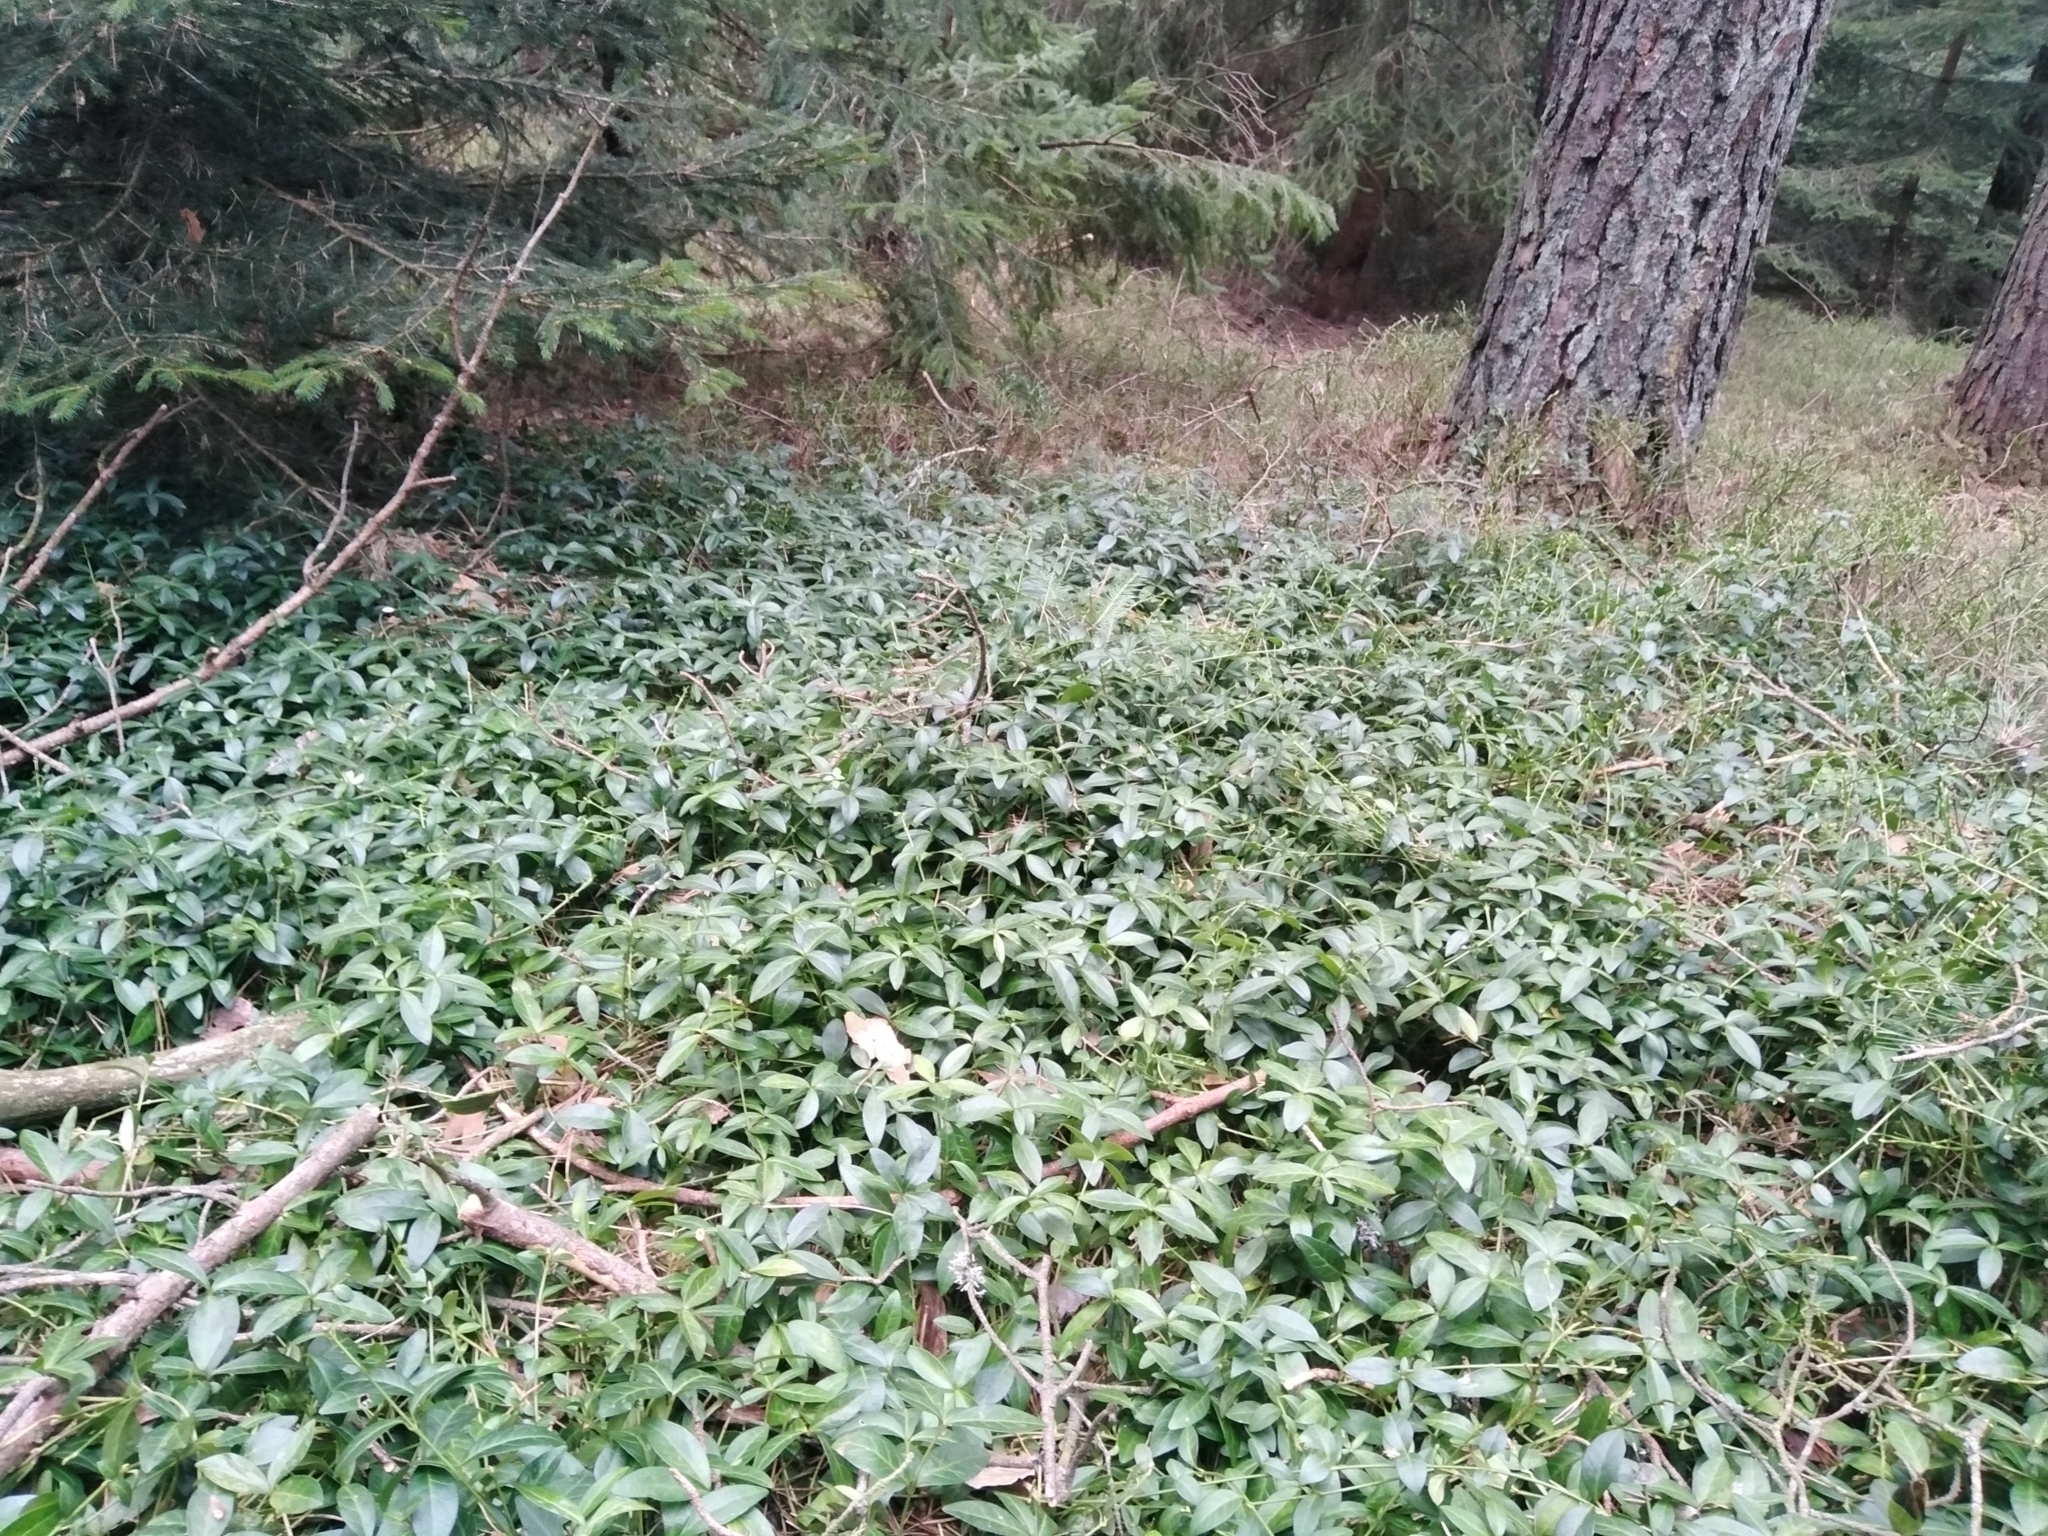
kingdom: Plantae
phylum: Tracheophyta
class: Magnoliopsida
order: Gentianales
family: Apocynaceae
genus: Vinca
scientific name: Vinca minor
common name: Lesser periwinkle
